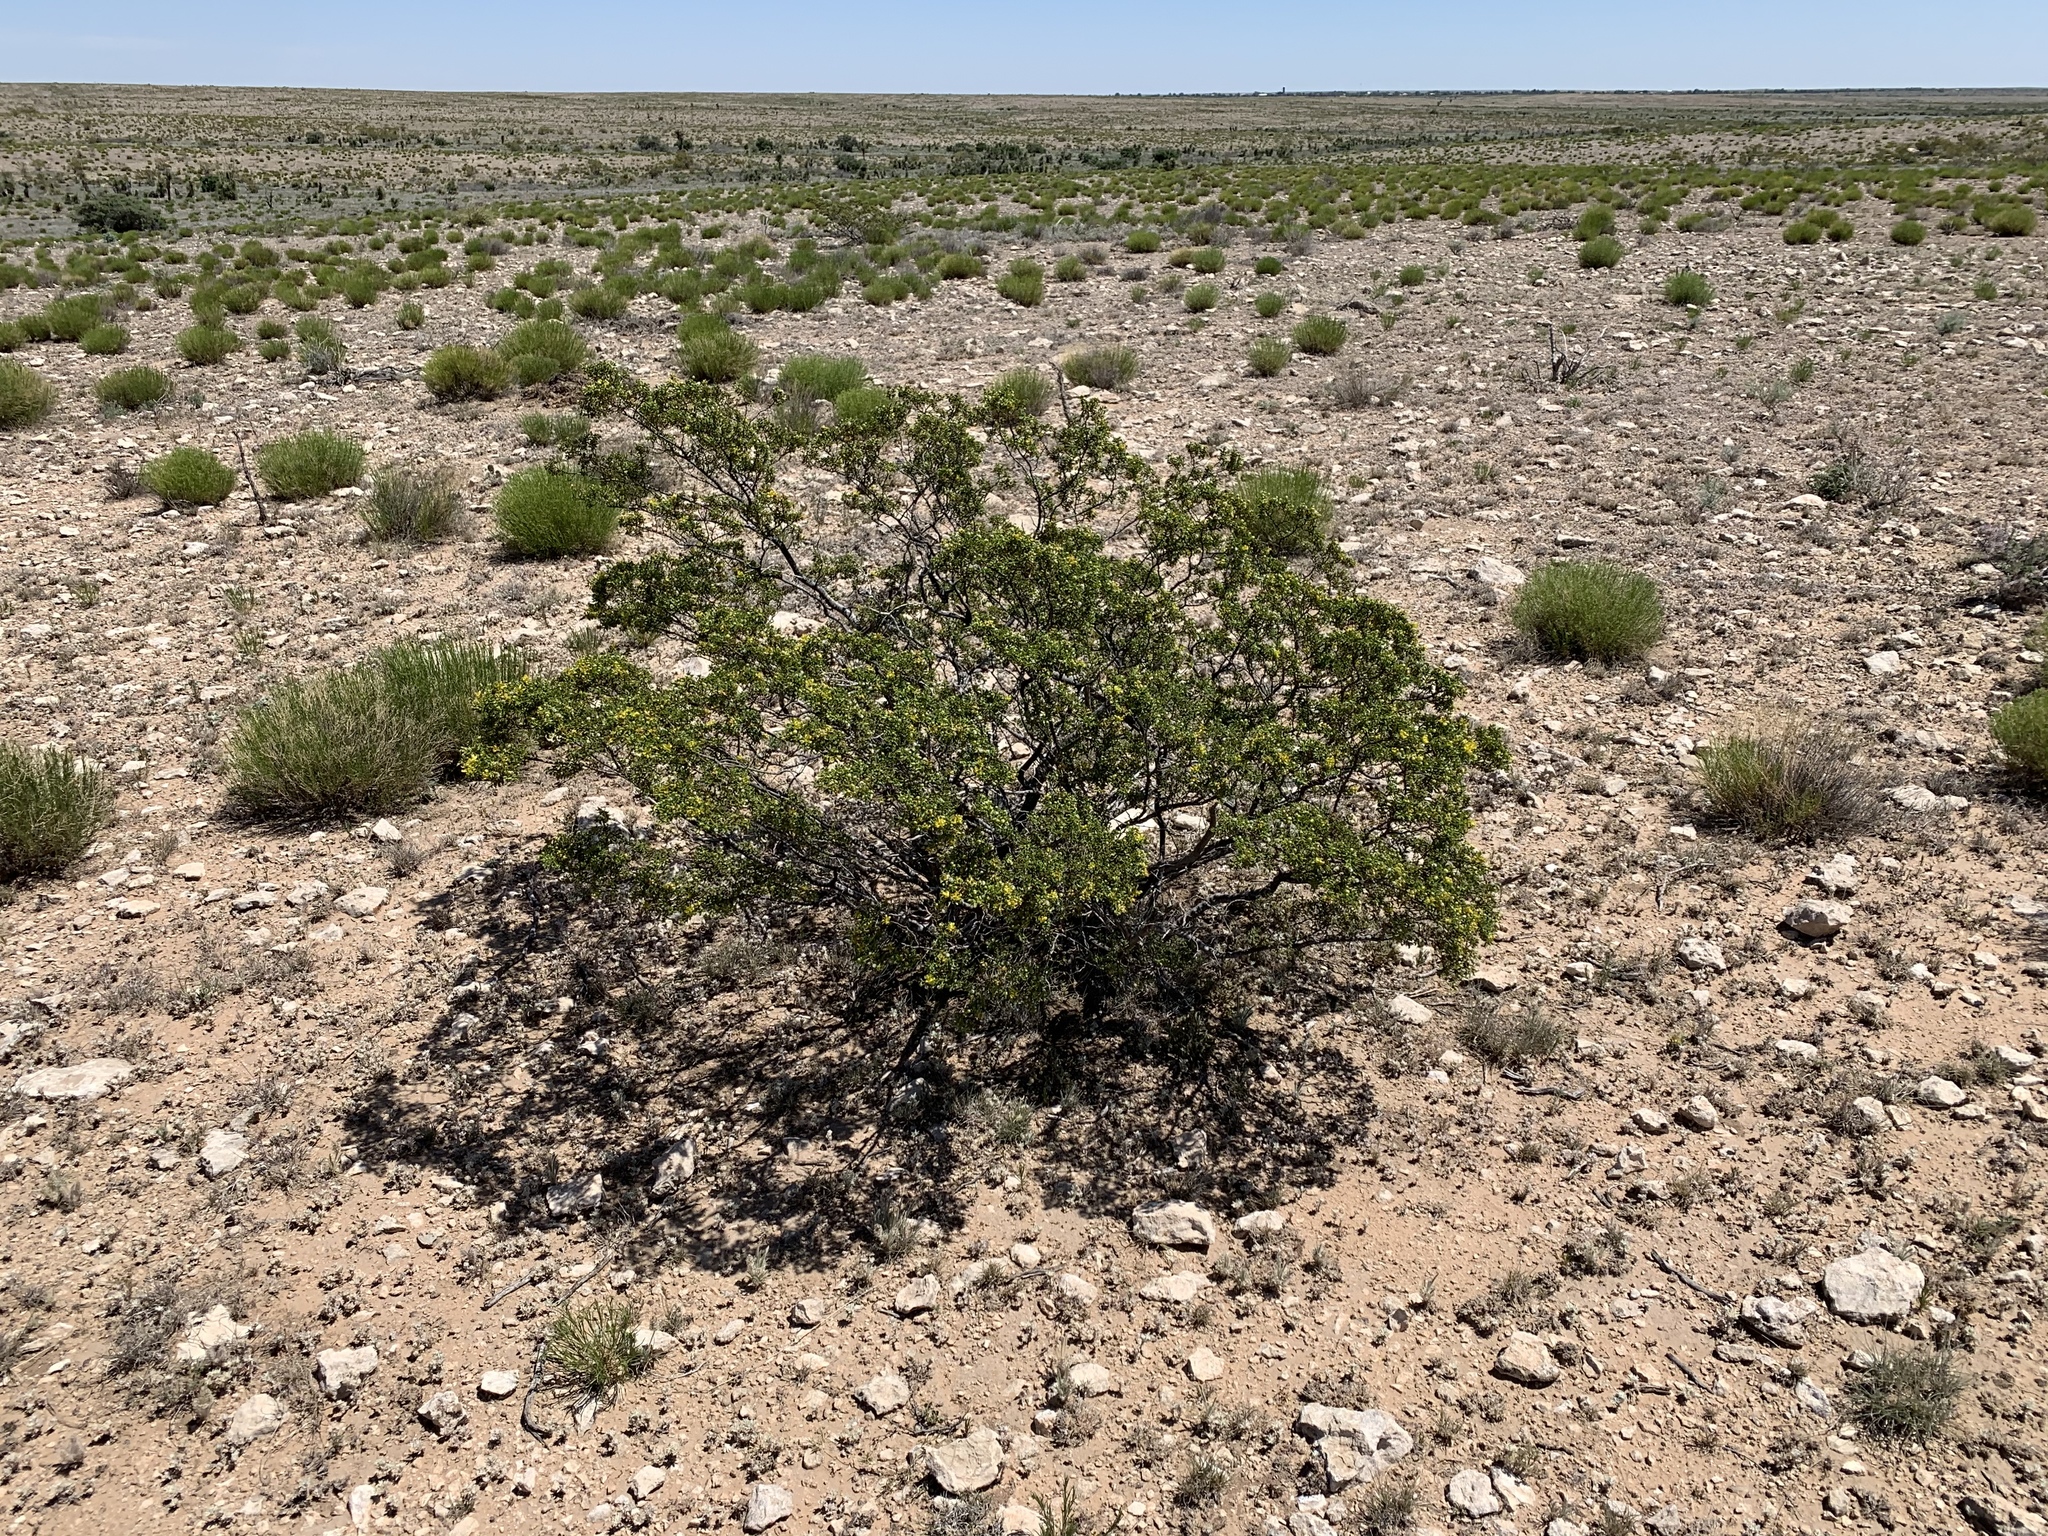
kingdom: Plantae
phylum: Tracheophyta
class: Magnoliopsida
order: Zygophyllales
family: Zygophyllaceae
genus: Larrea
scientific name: Larrea tridentata
